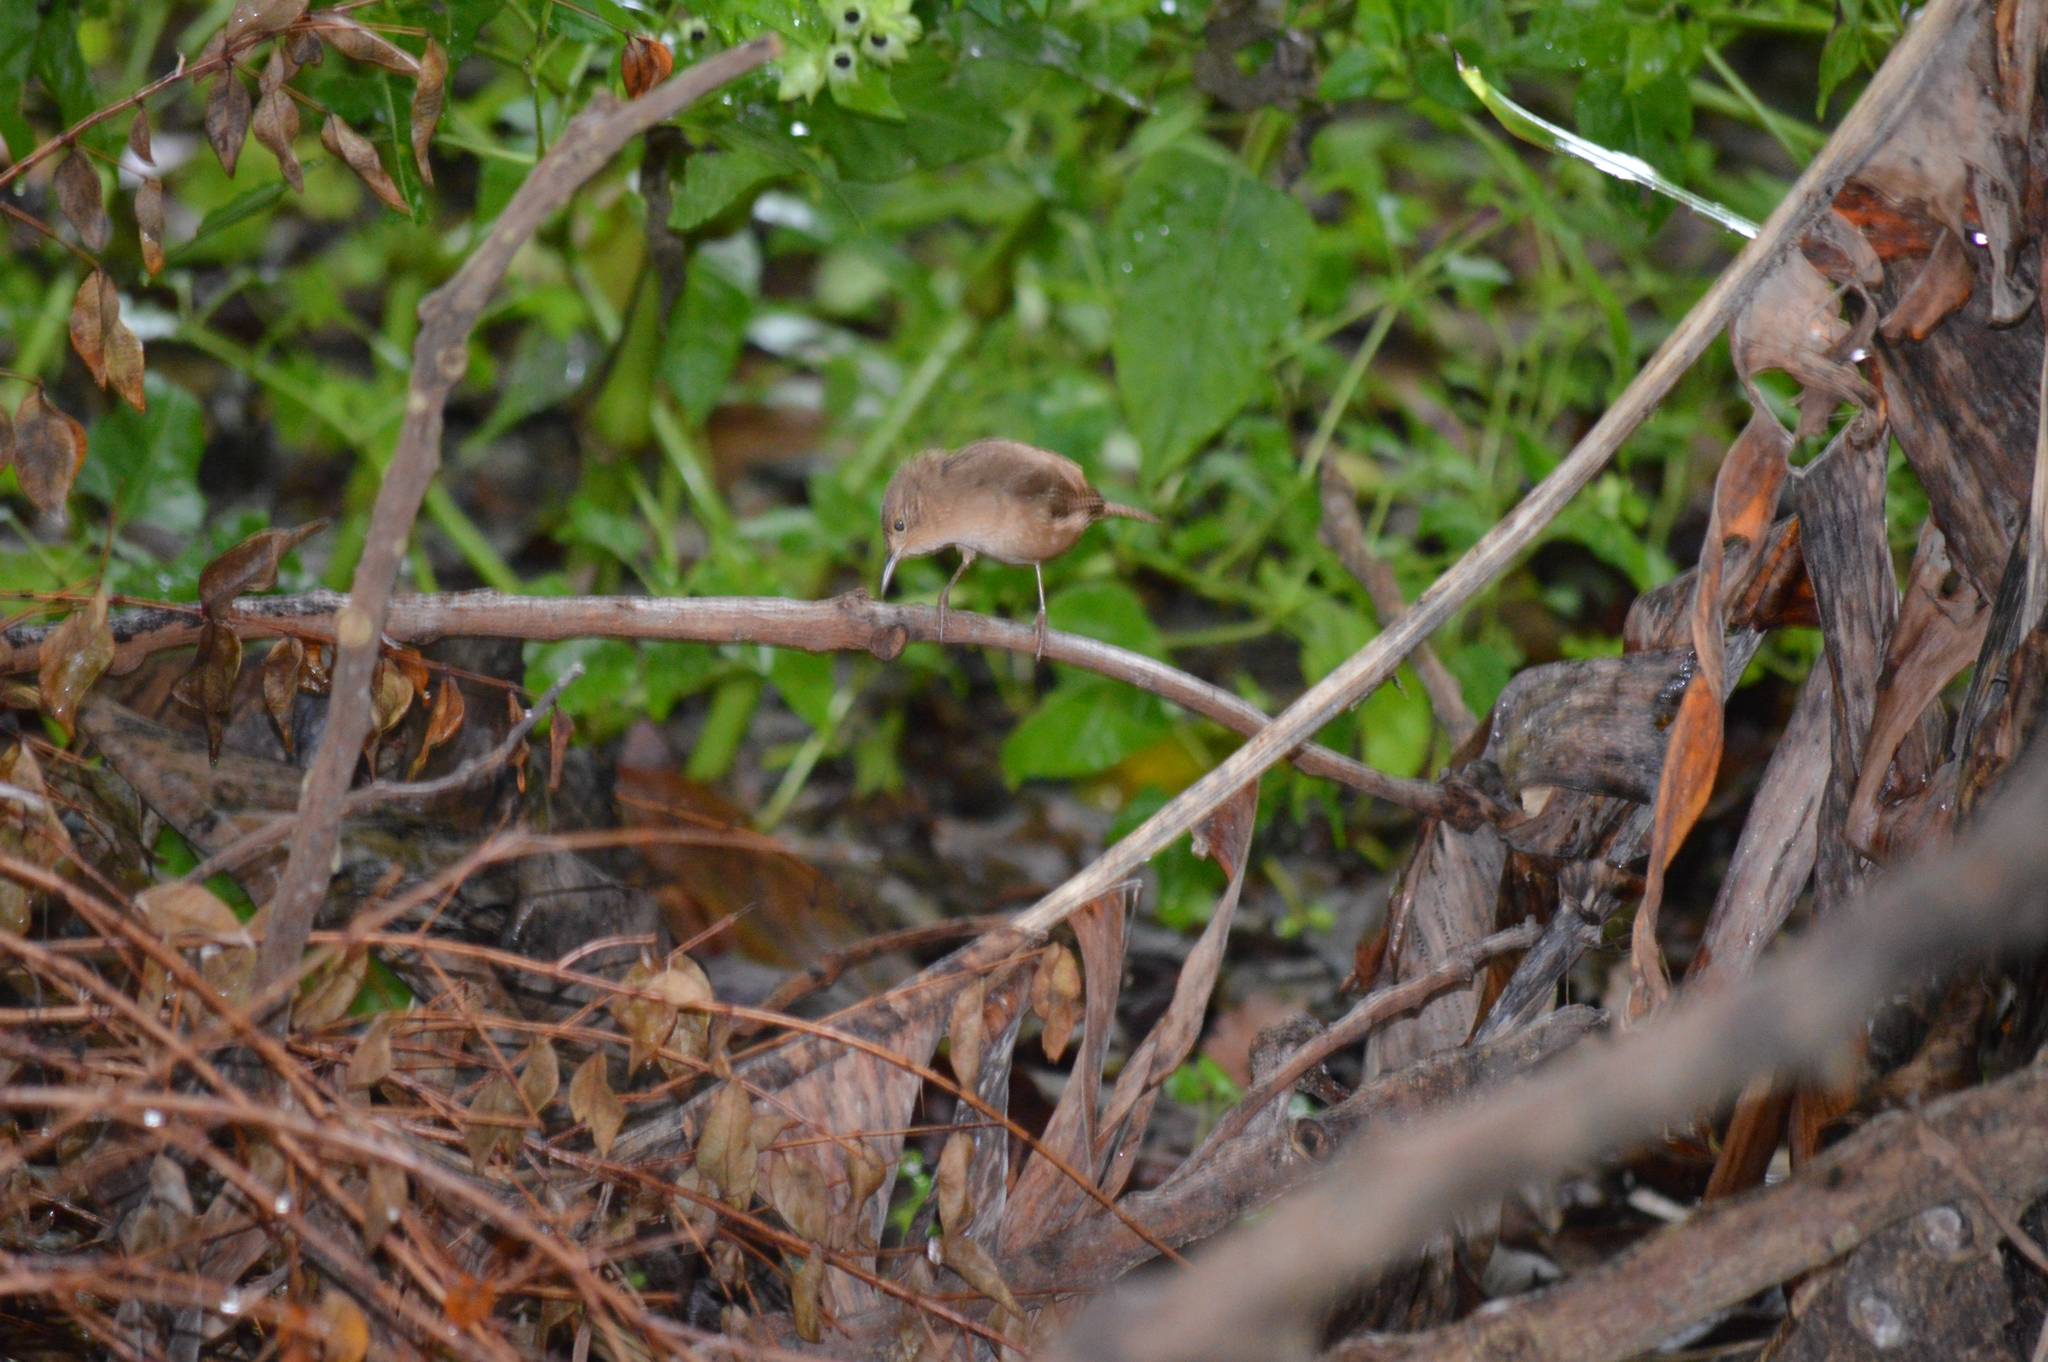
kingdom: Animalia
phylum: Chordata
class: Aves
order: Passeriformes
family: Troglodytidae
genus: Troglodytes
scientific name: Troglodytes aedon
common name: House wren
